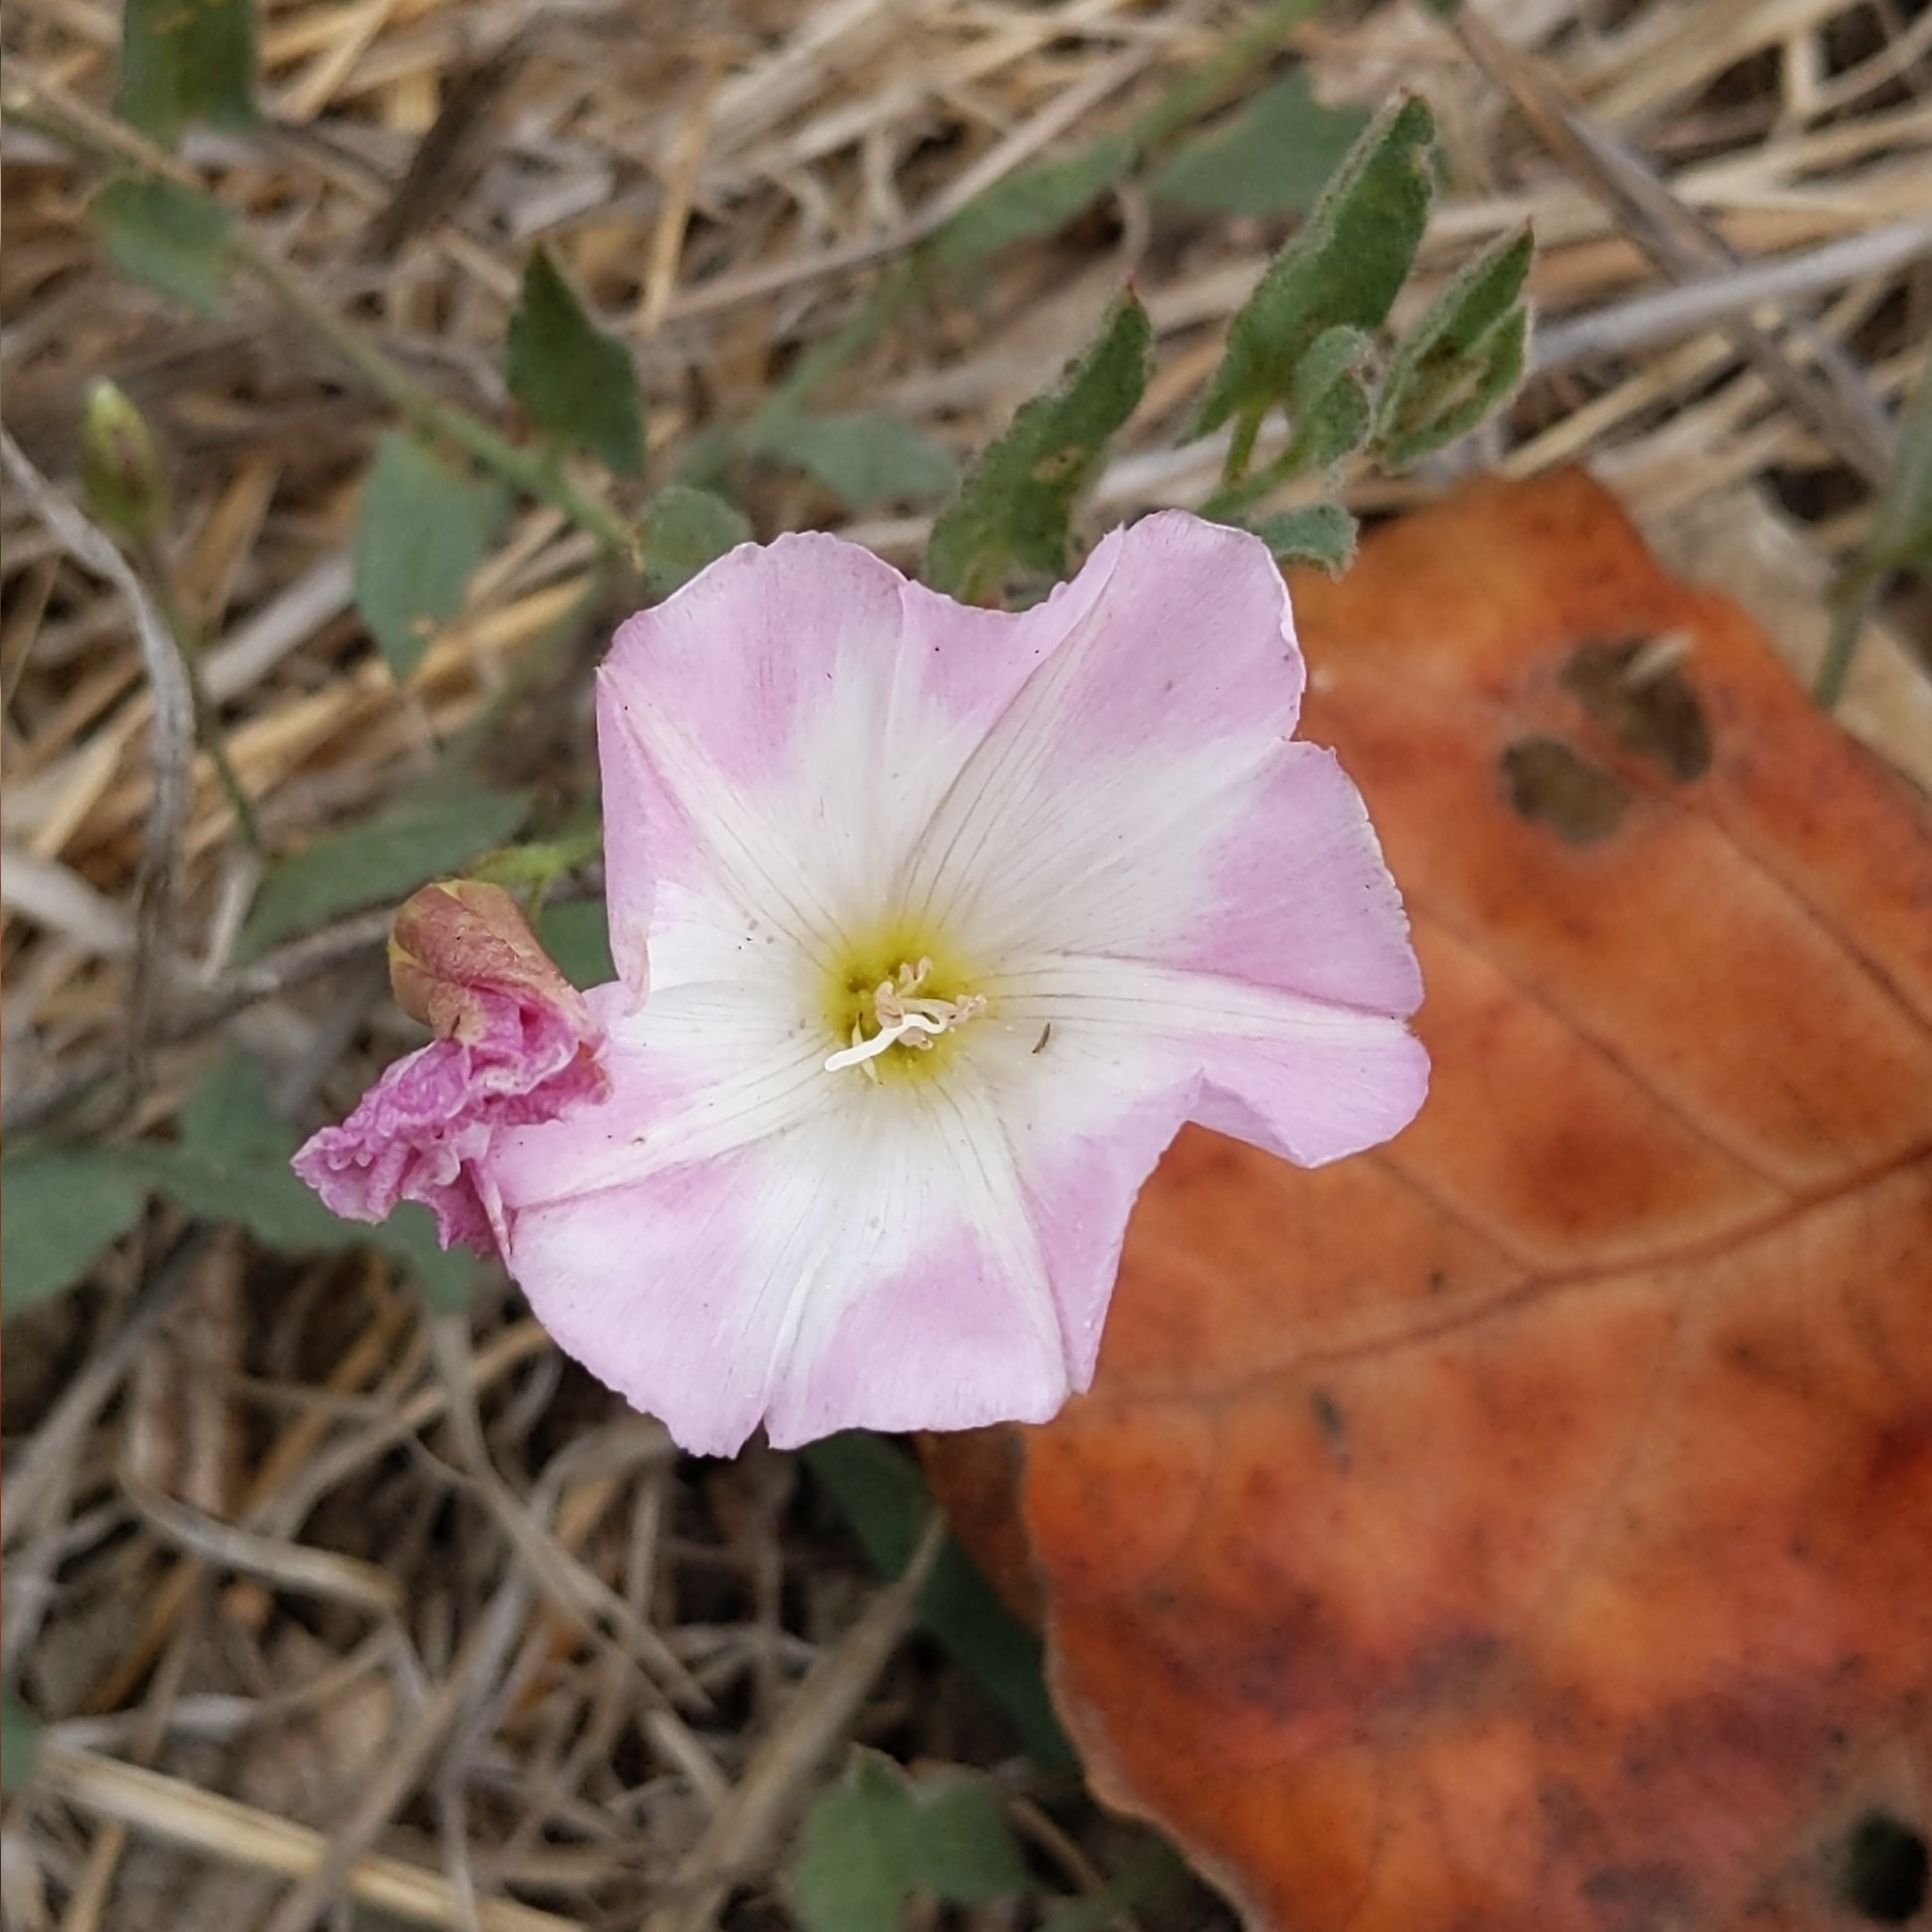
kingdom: Plantae
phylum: Tracheophyta
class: Magnoliopsida
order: Solanales
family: Convolvulaceae
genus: Convolvulus
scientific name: Convolvulus arvensis
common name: Field bindweed
